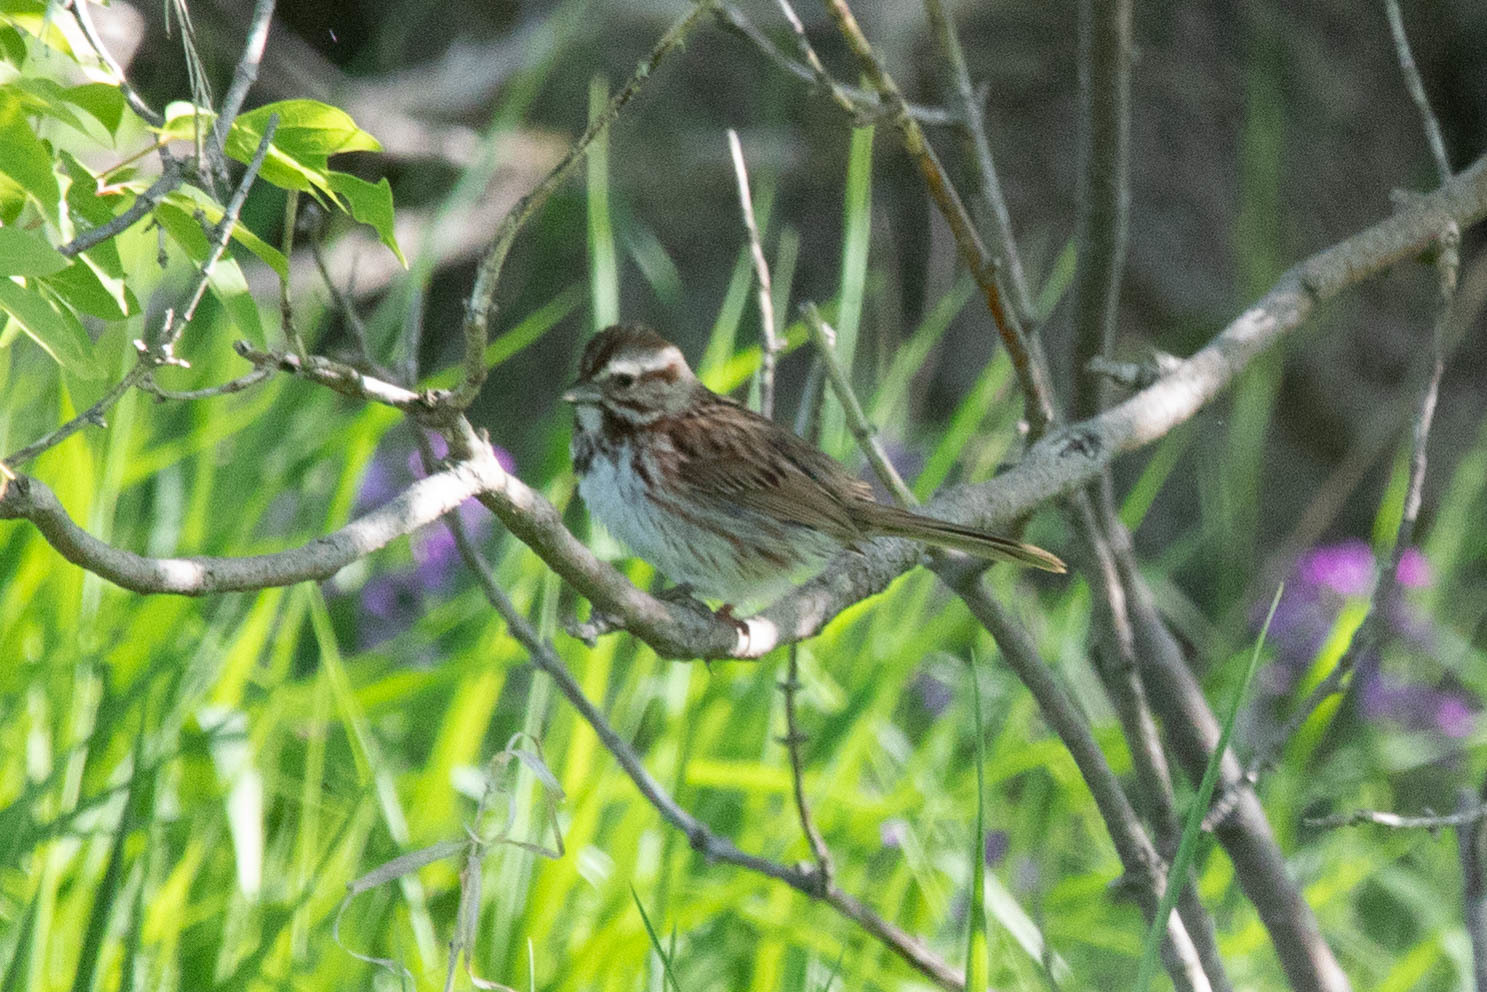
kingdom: Animalia
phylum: Chordata
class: Aves
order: Passeriformes
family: Passerellidae
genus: Melospiza
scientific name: Melospiza melodia
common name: Song sparrow
